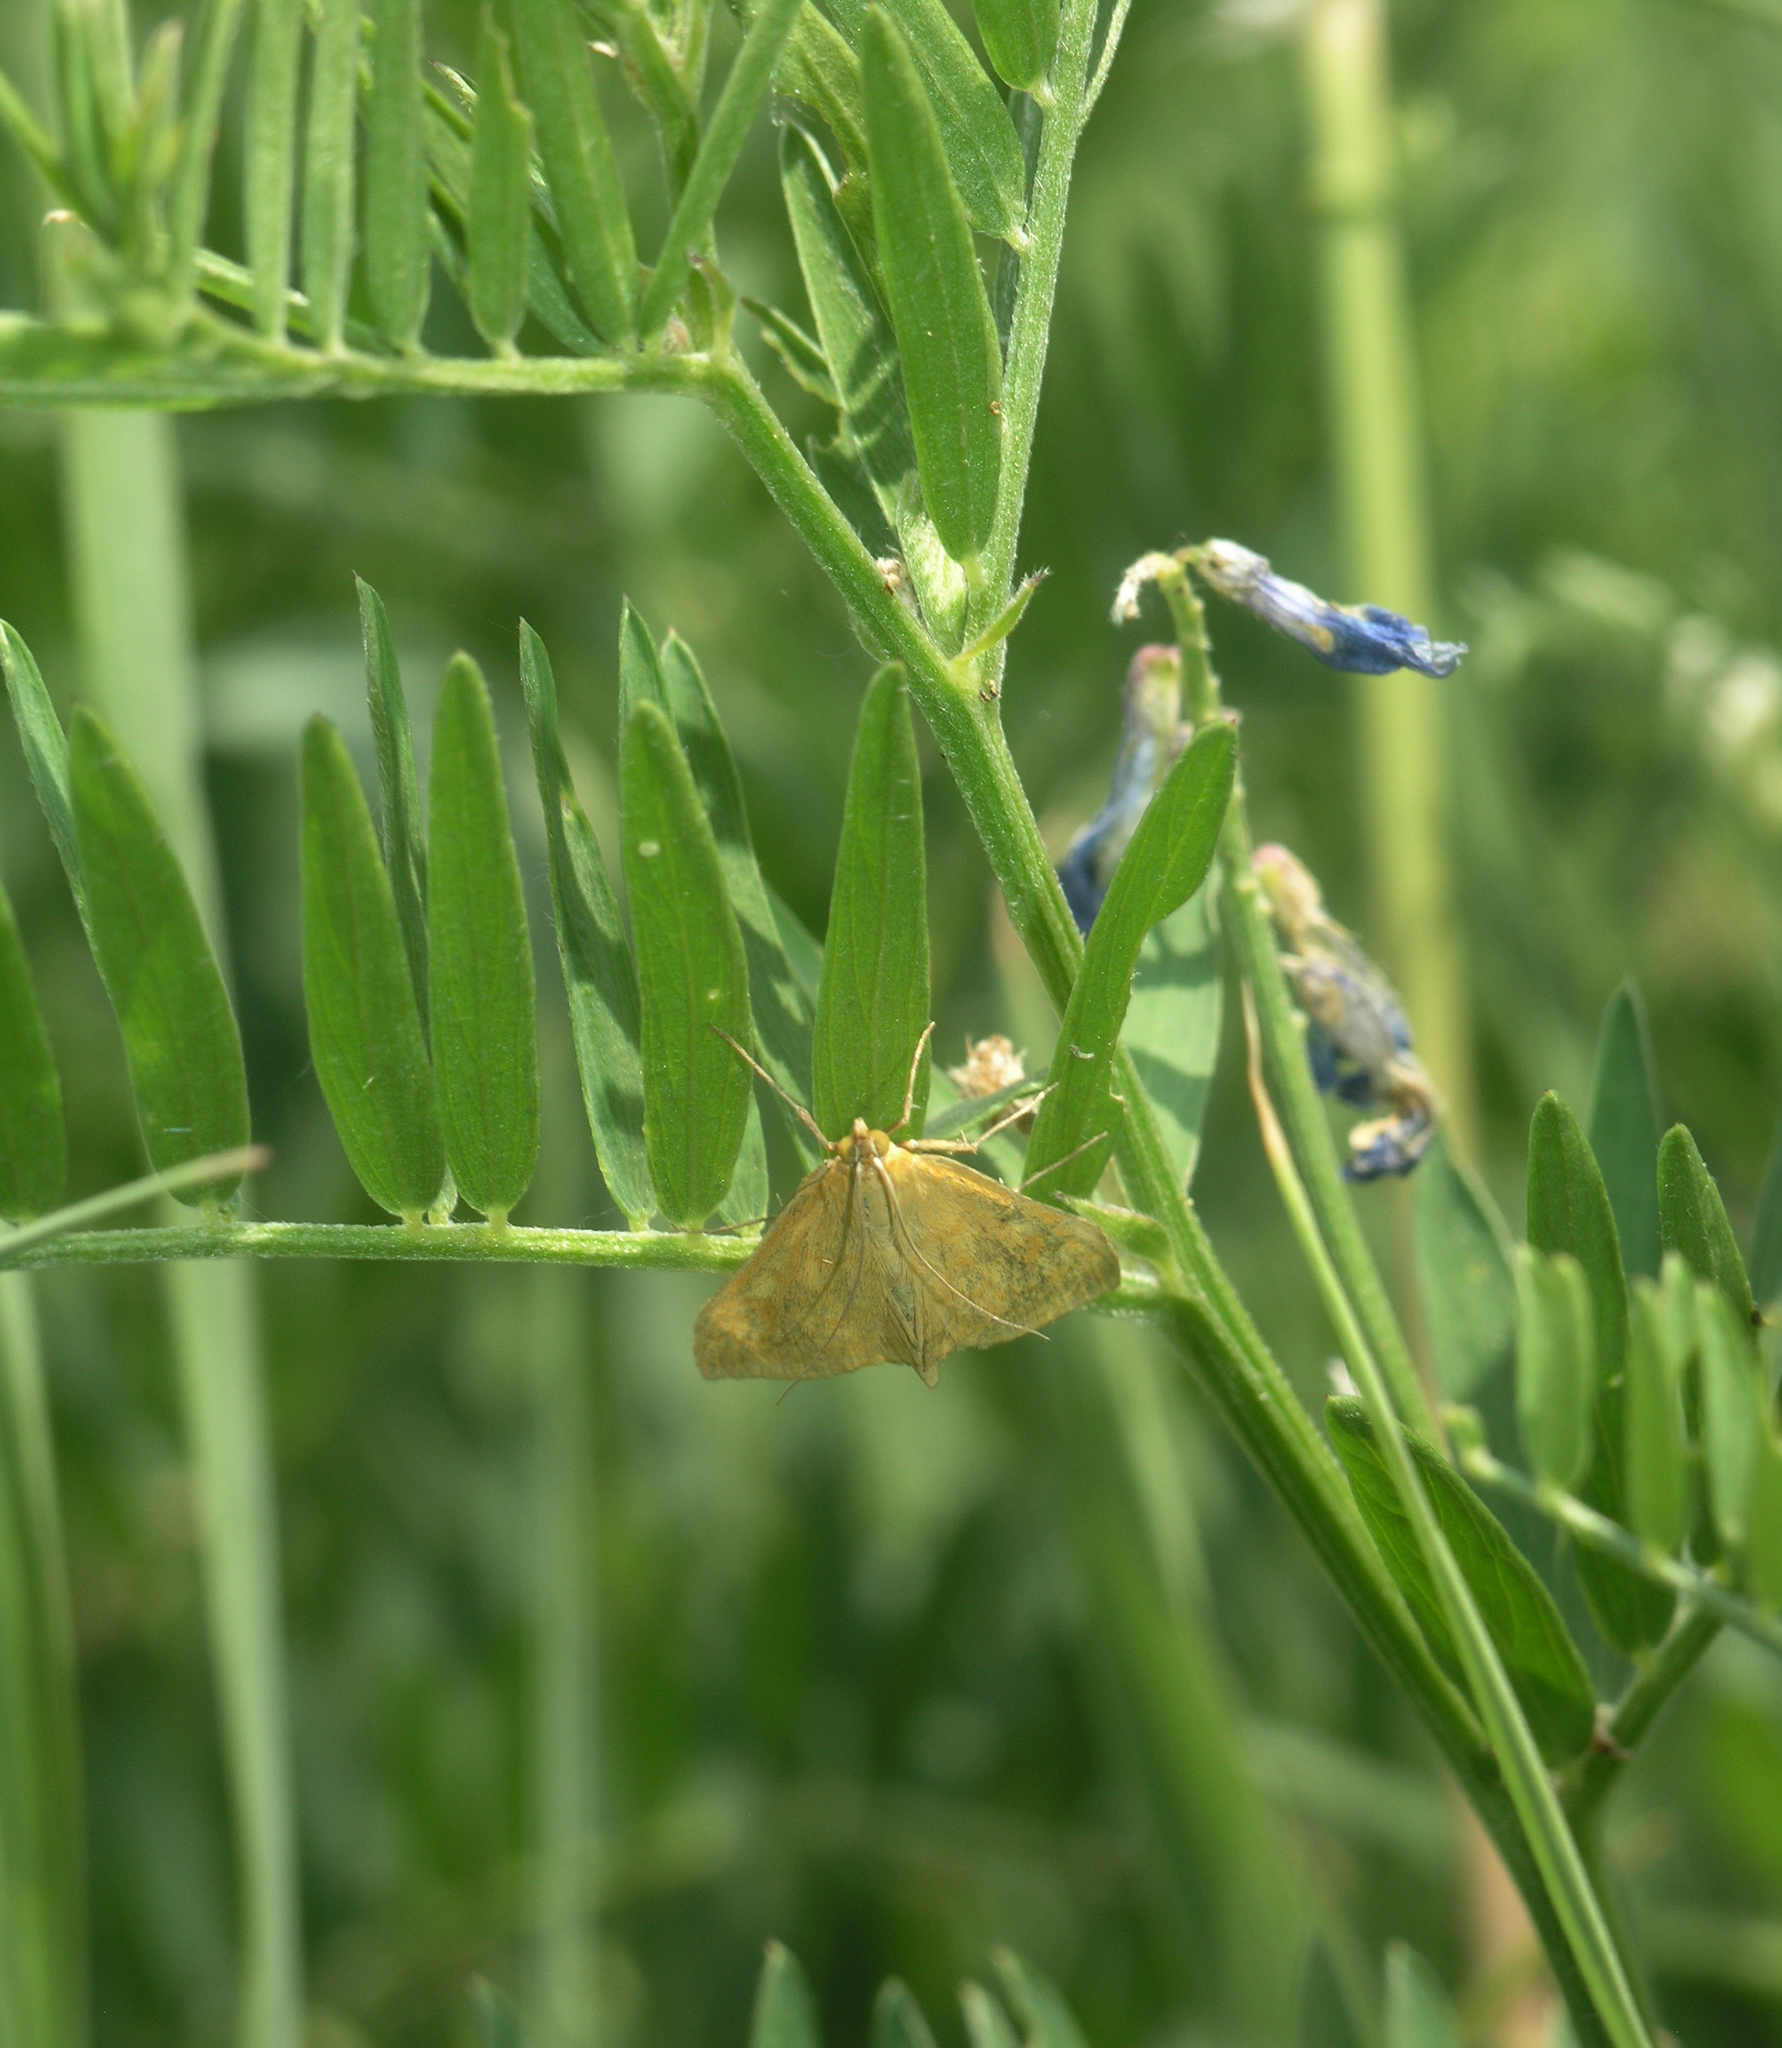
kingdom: Animalia
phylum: Arthropoda
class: Insecta
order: Lepidoptera
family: Crambidae
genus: Sitochroa
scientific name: Sitochroa verticalis
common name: Lesser pearl
